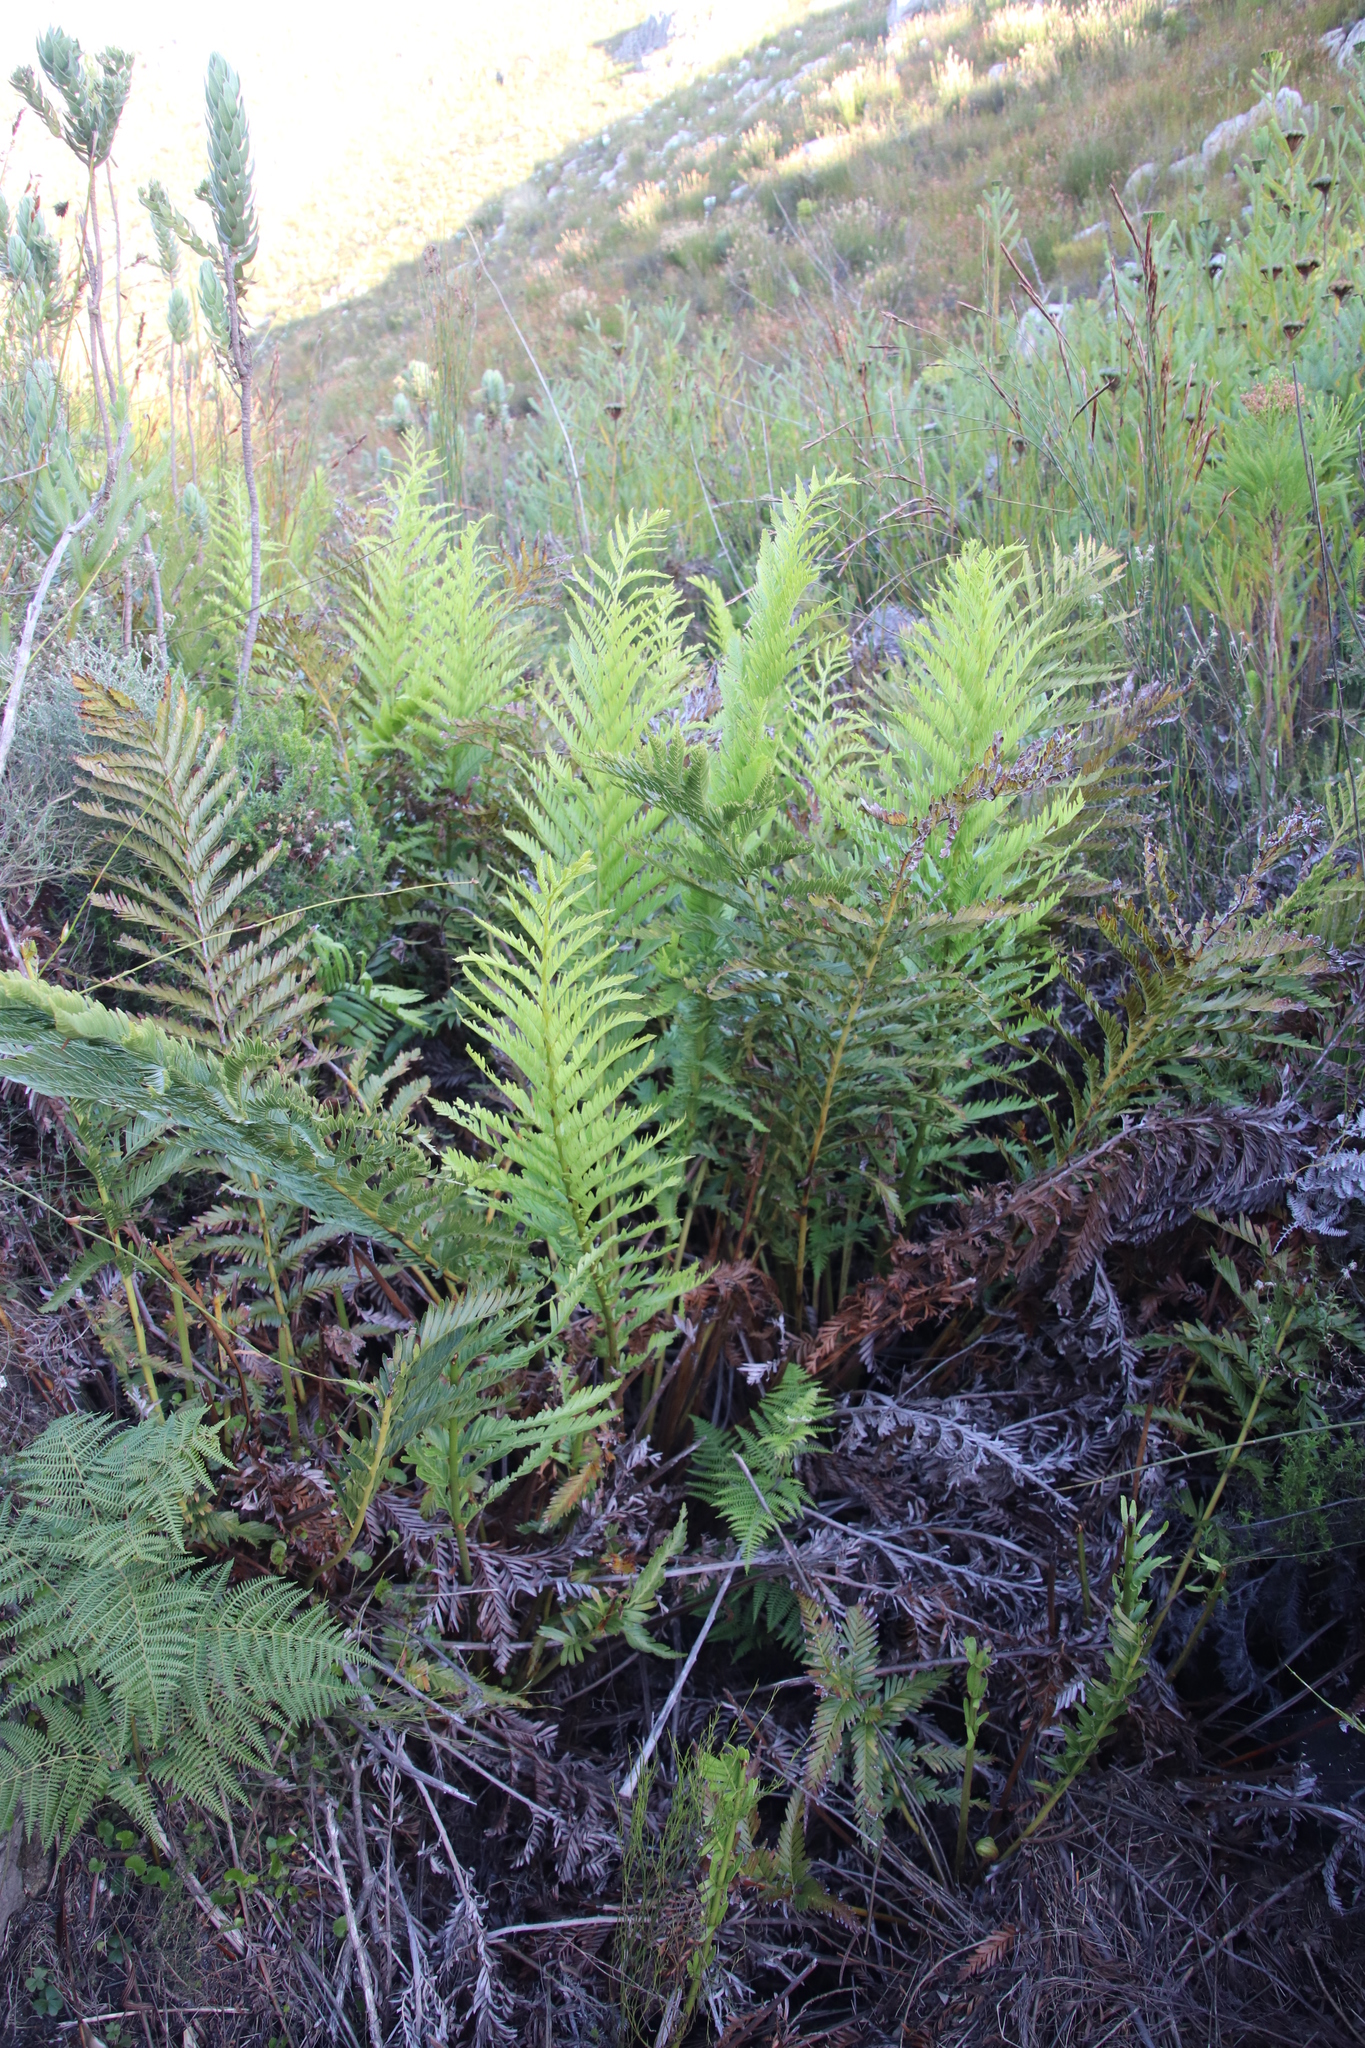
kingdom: Plantae
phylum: Tracheophyta
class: Polypodiopsida
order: Osmundales
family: Osmundaceae
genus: Todea
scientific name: Todea barbara
